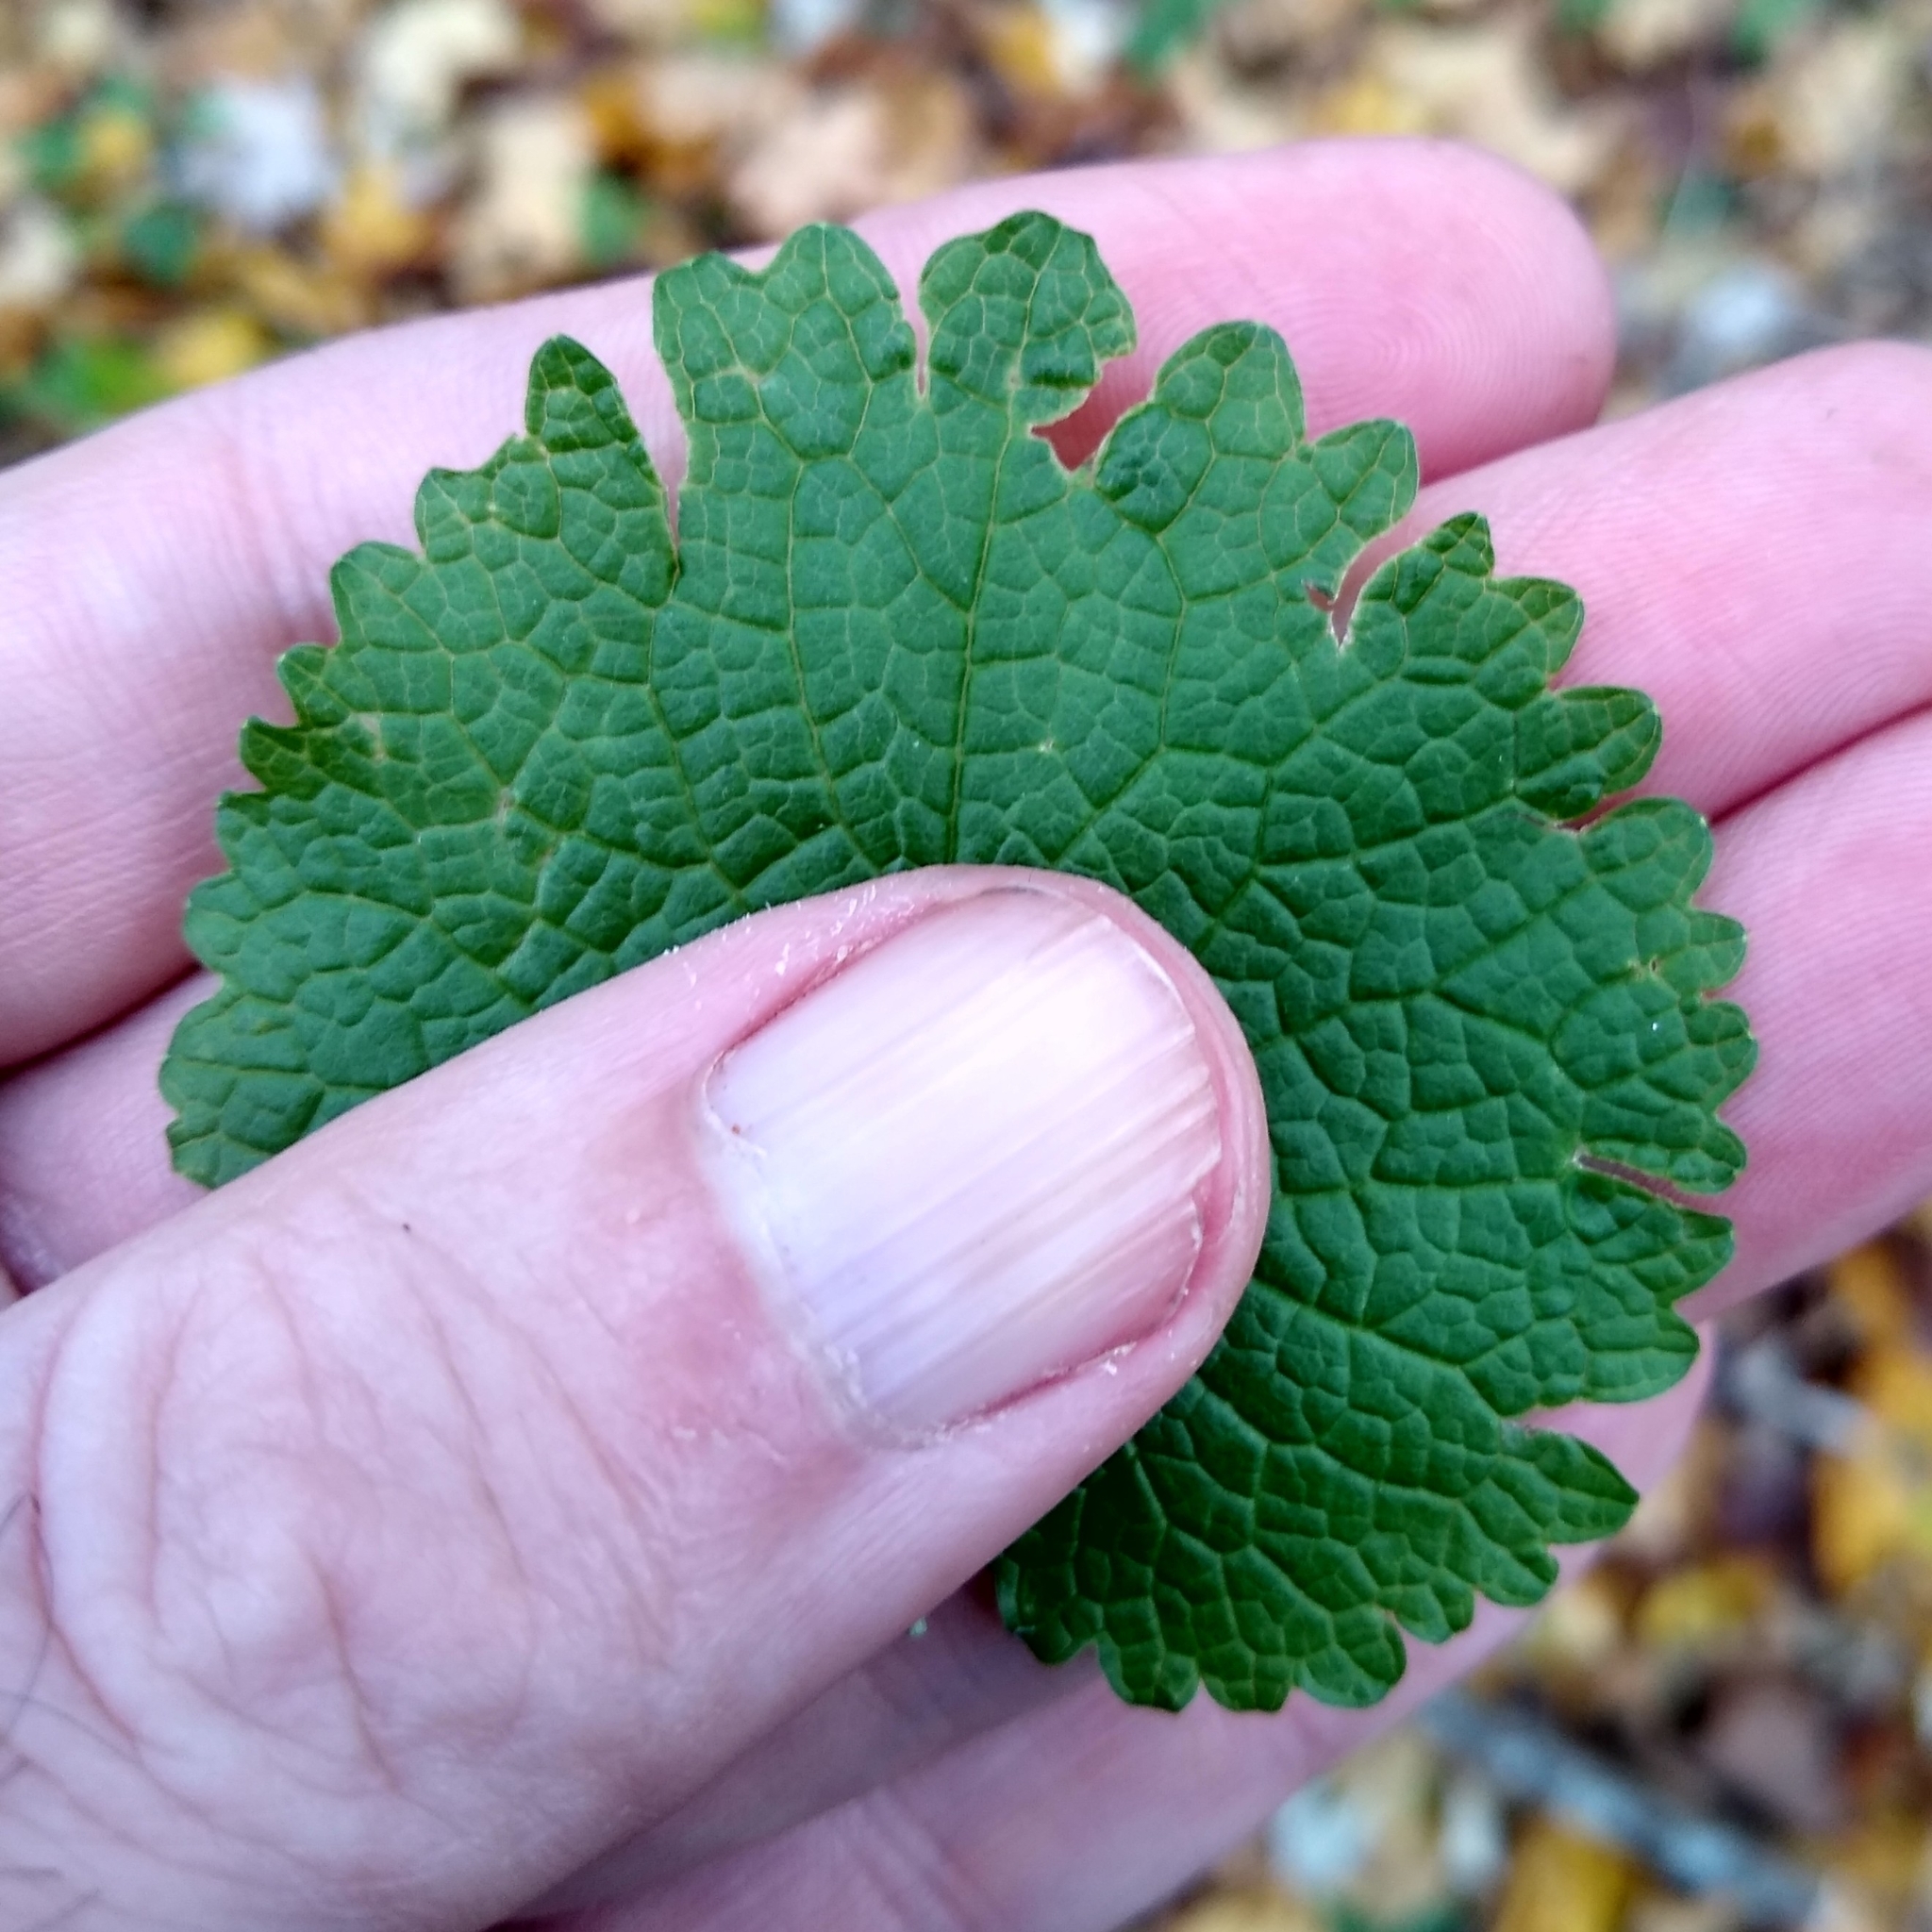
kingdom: Plantae
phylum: Tracheophyta
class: Magnoliopsida
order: Brassicales
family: Brassicaceae
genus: Alliaria
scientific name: Alliaria petiolata
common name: Garlic mustard
